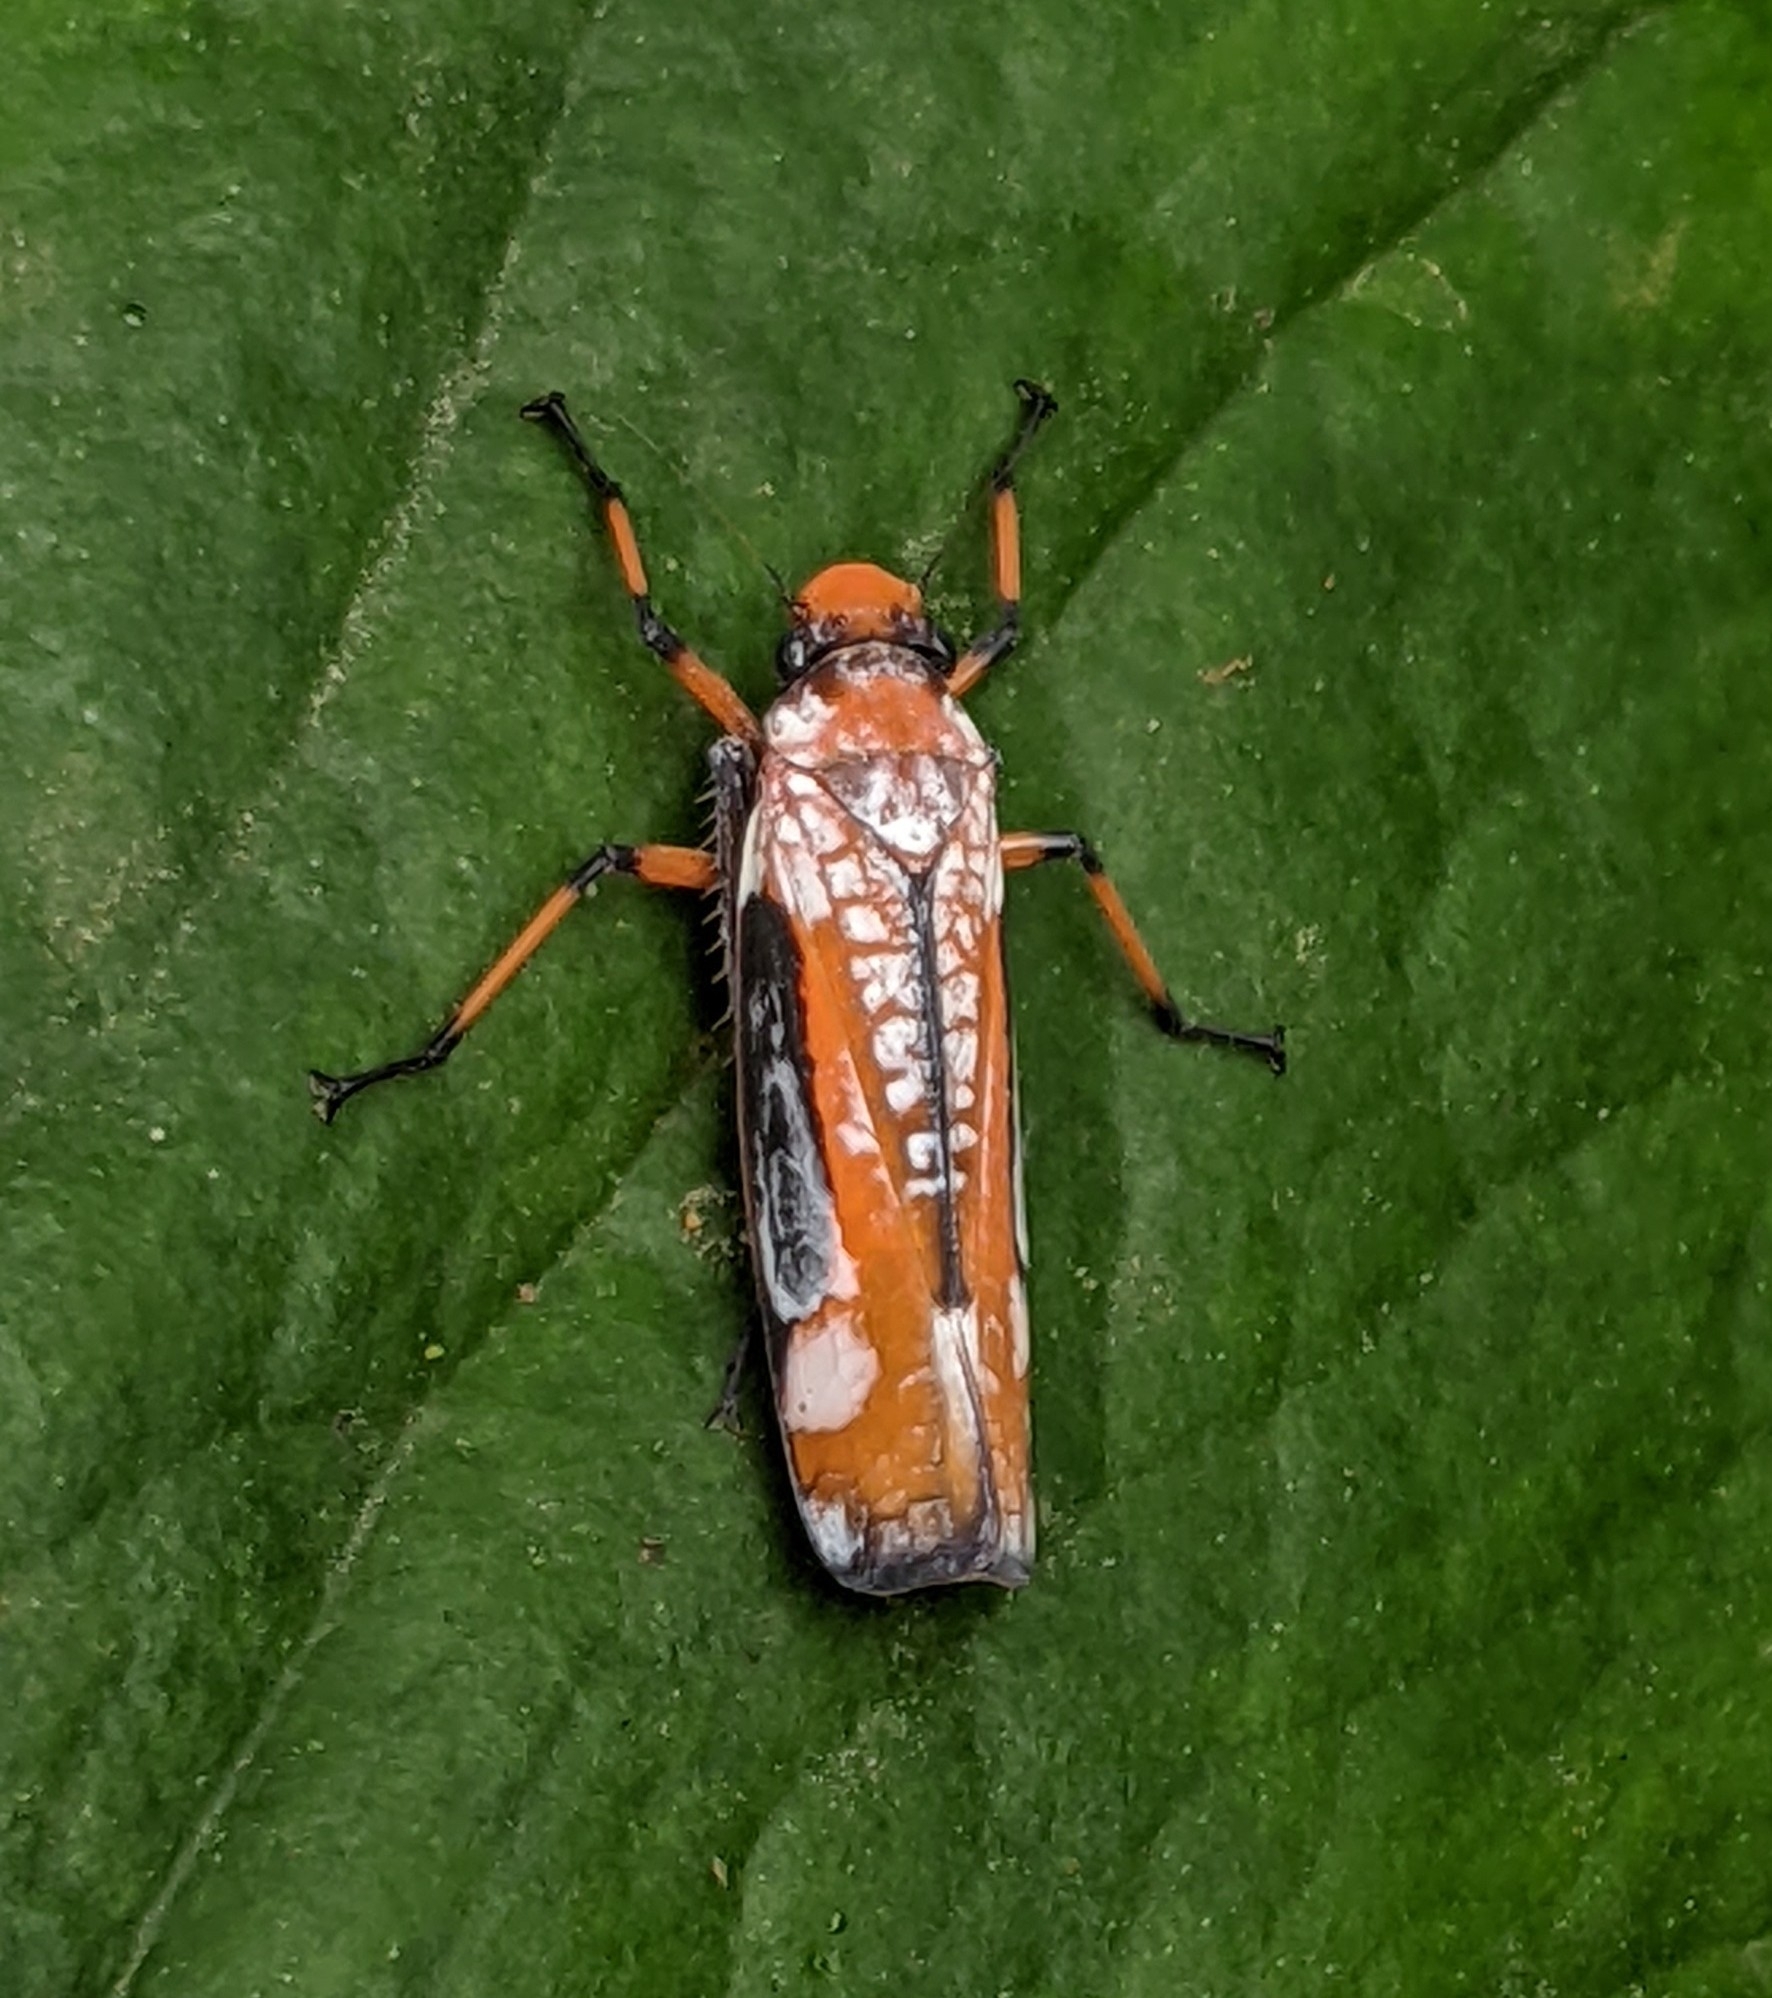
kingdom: Animalia
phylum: Arthropoda
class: Insecta
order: Hemiptera
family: Cicadellidae
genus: Onega
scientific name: Onega avella
